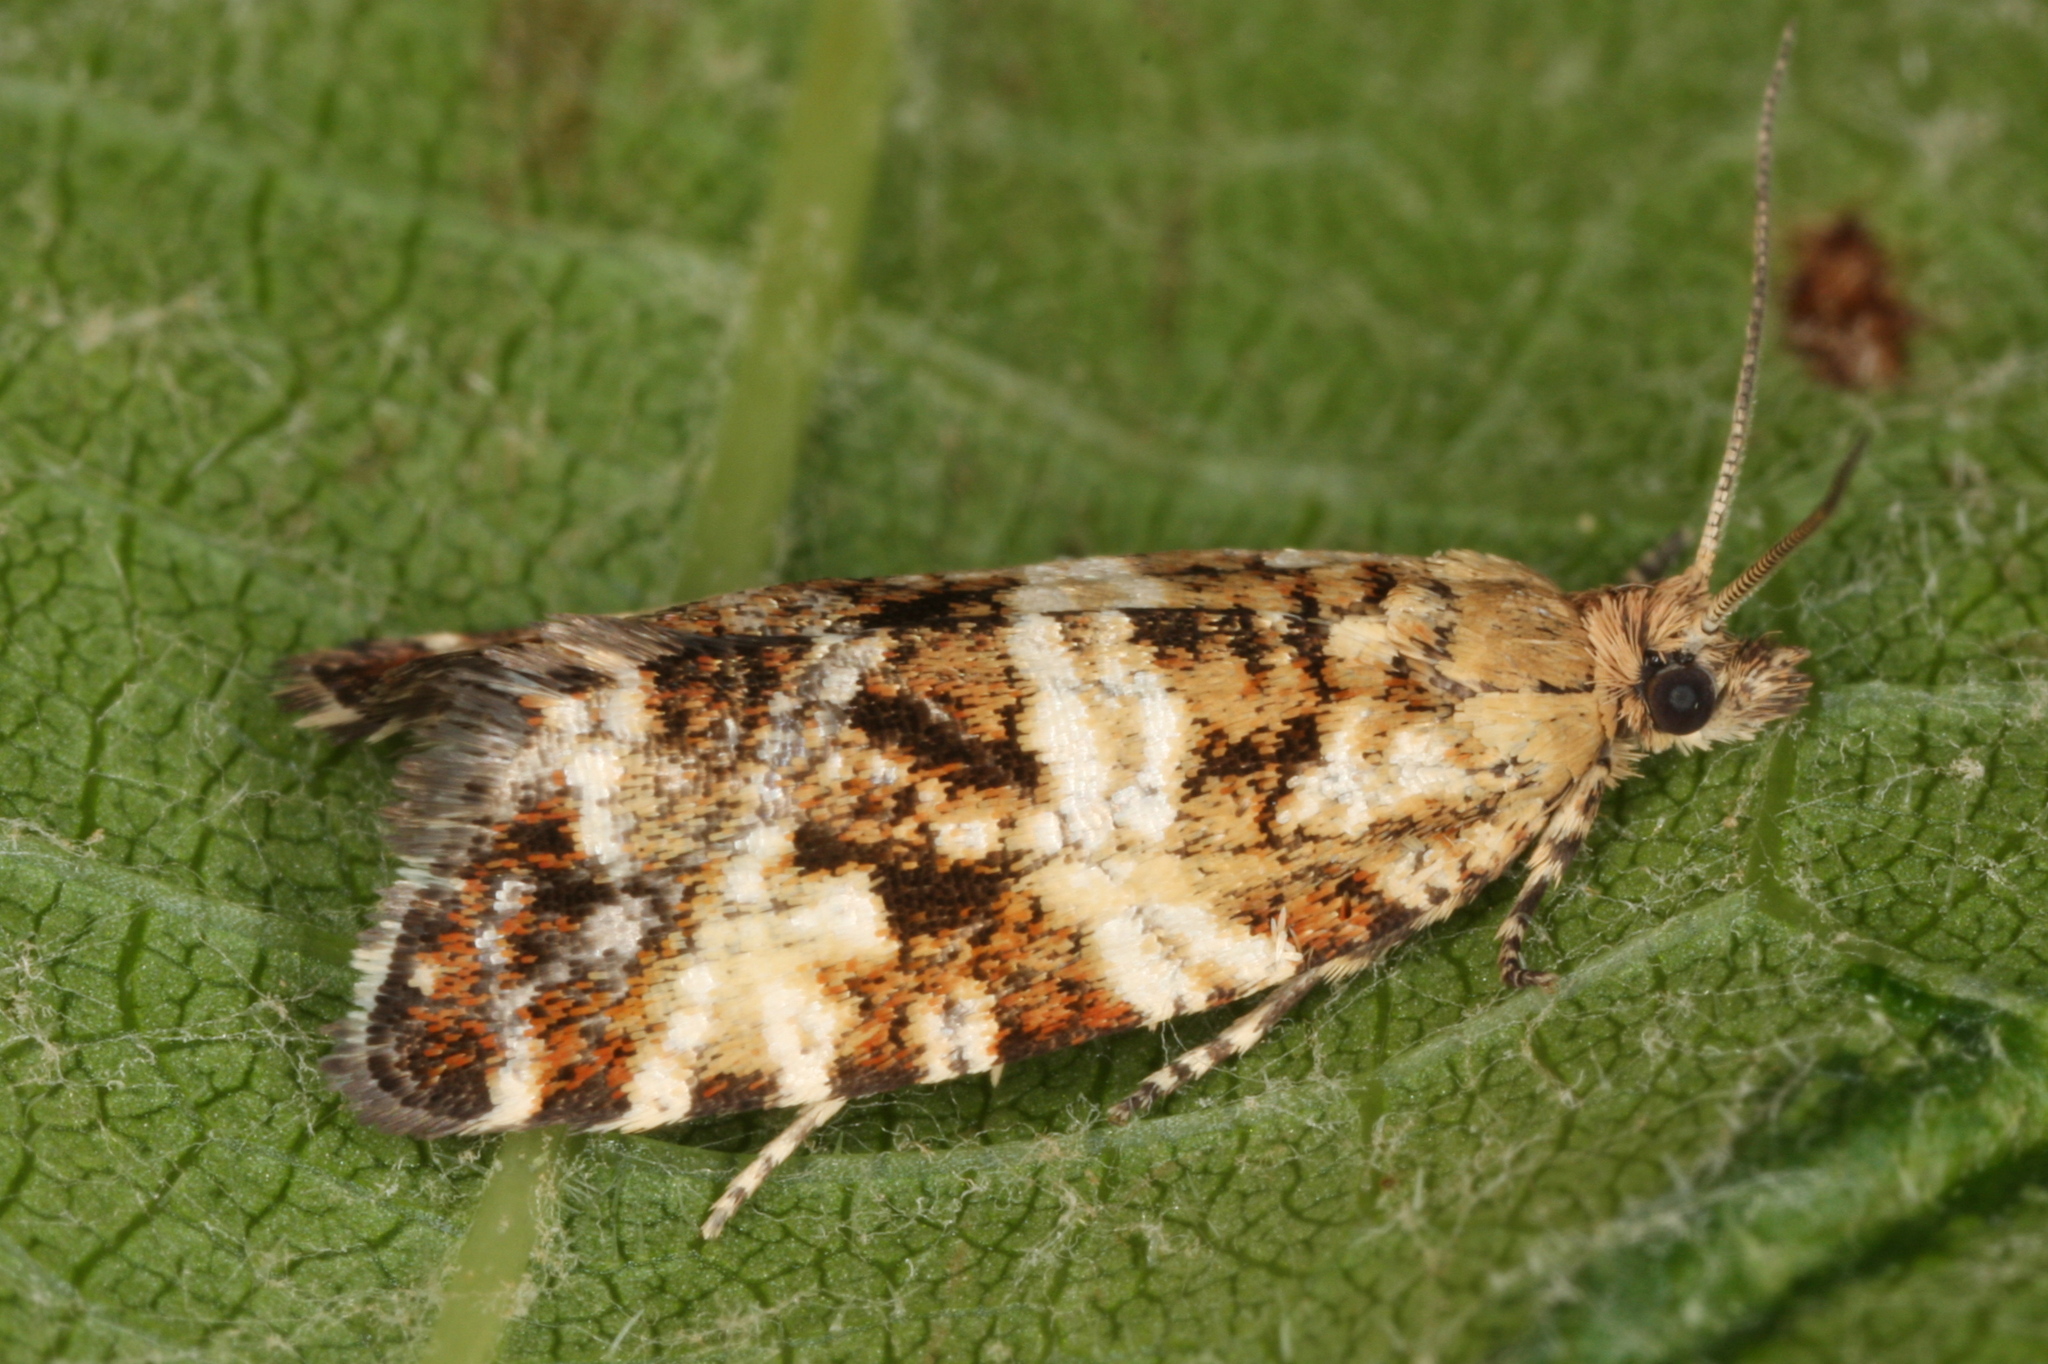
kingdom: Animalia
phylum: Arthropoda
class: Insecta
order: Lepidoptera
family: Tortricidae
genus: Olethreutes
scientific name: Olethreutes micana
